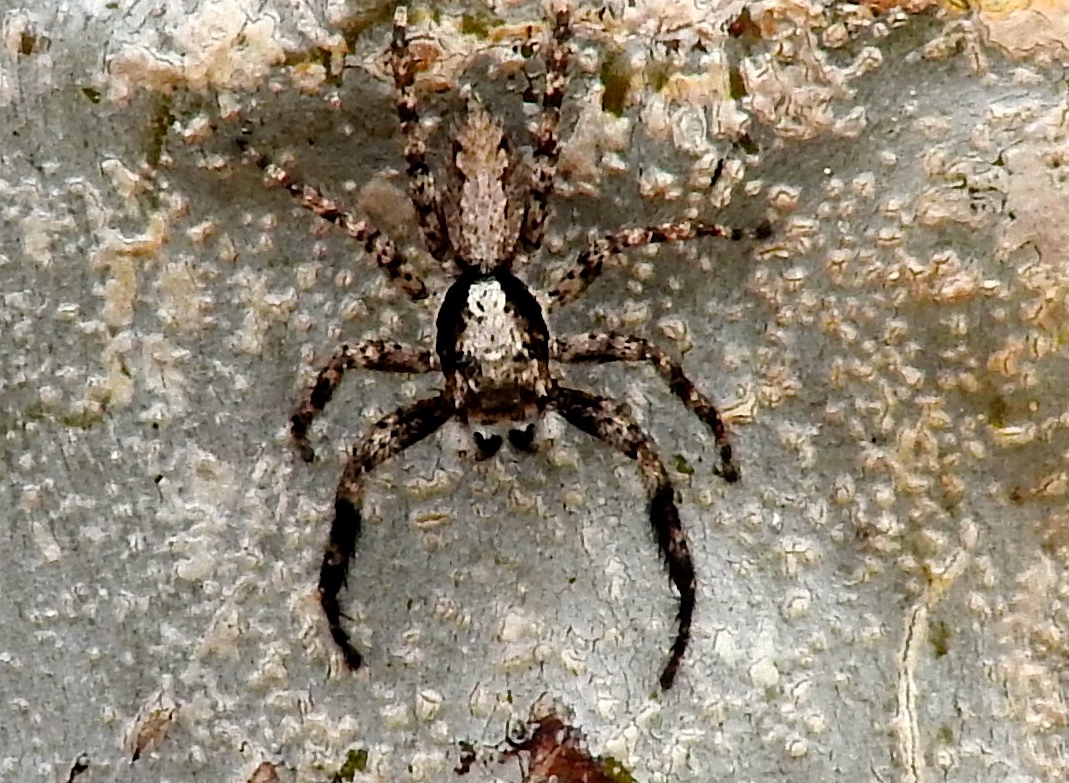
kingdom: Animalia
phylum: Arthropoda
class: Arachnida
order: Araneae
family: Salticidae
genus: Balmaceda
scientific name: Balmaceda
